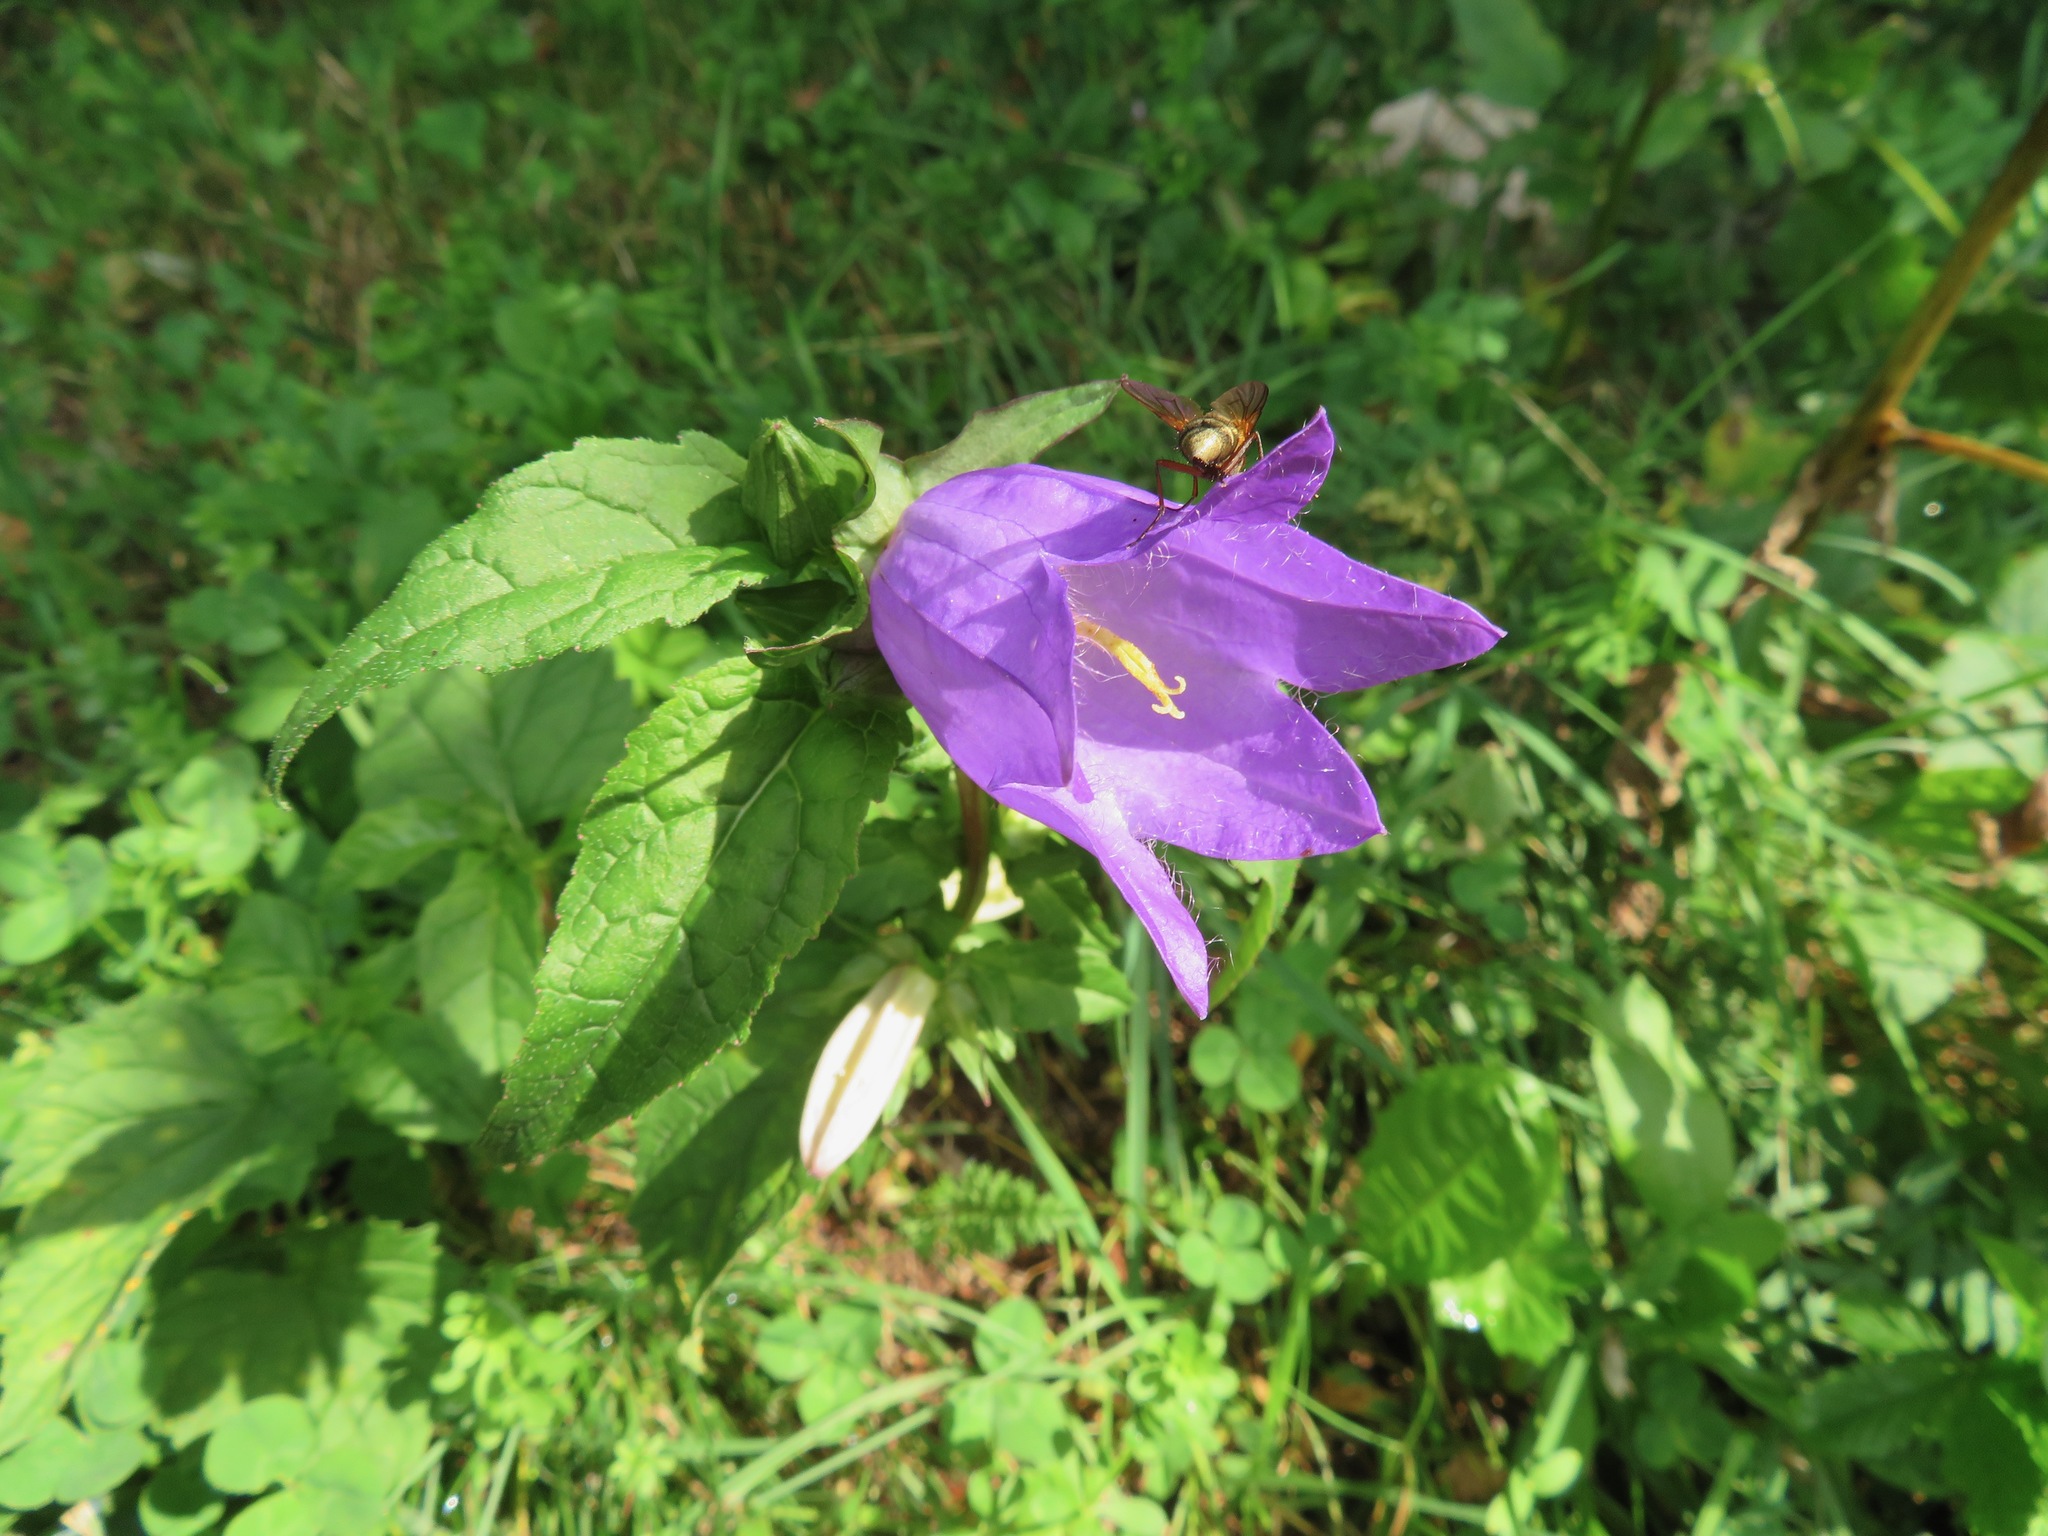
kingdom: Plantae
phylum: Tracheophyta
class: Magnoliopsida
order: Asterales
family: Campanulaceae
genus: Campanula
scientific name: Campanula trachelium
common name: Nettle-leaved bellflower
